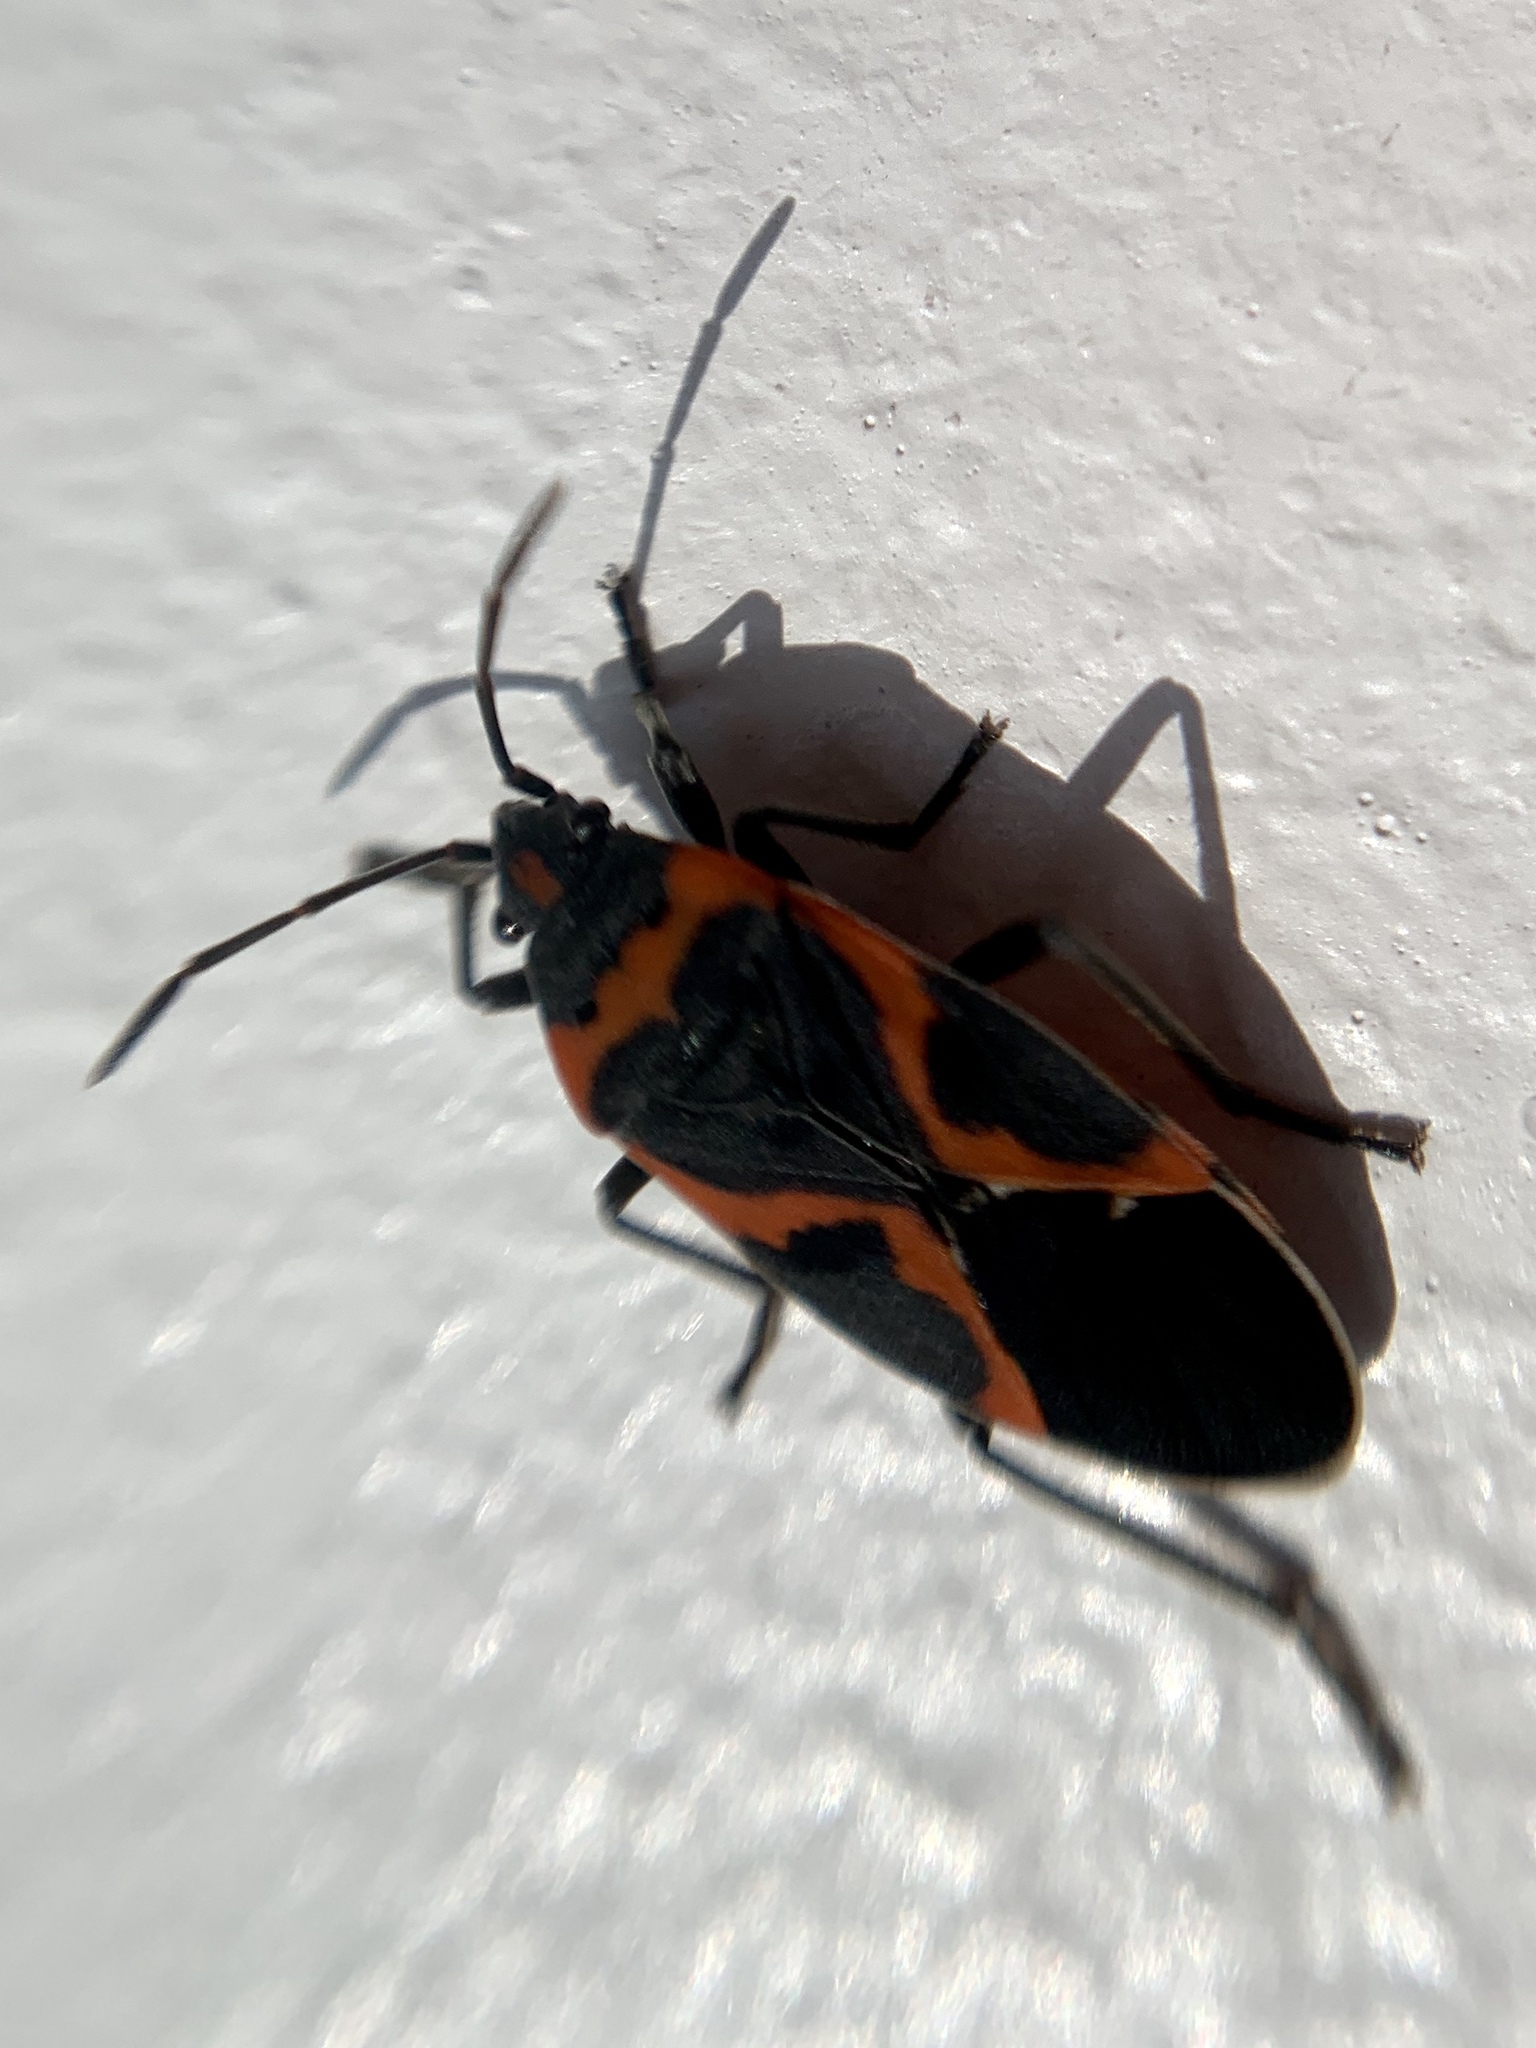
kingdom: Animalia
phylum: Arthropoda
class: Insecta
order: Hemiptera
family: Lygaeidae
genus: Lygaeus
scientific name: Lygaeus kalmii
